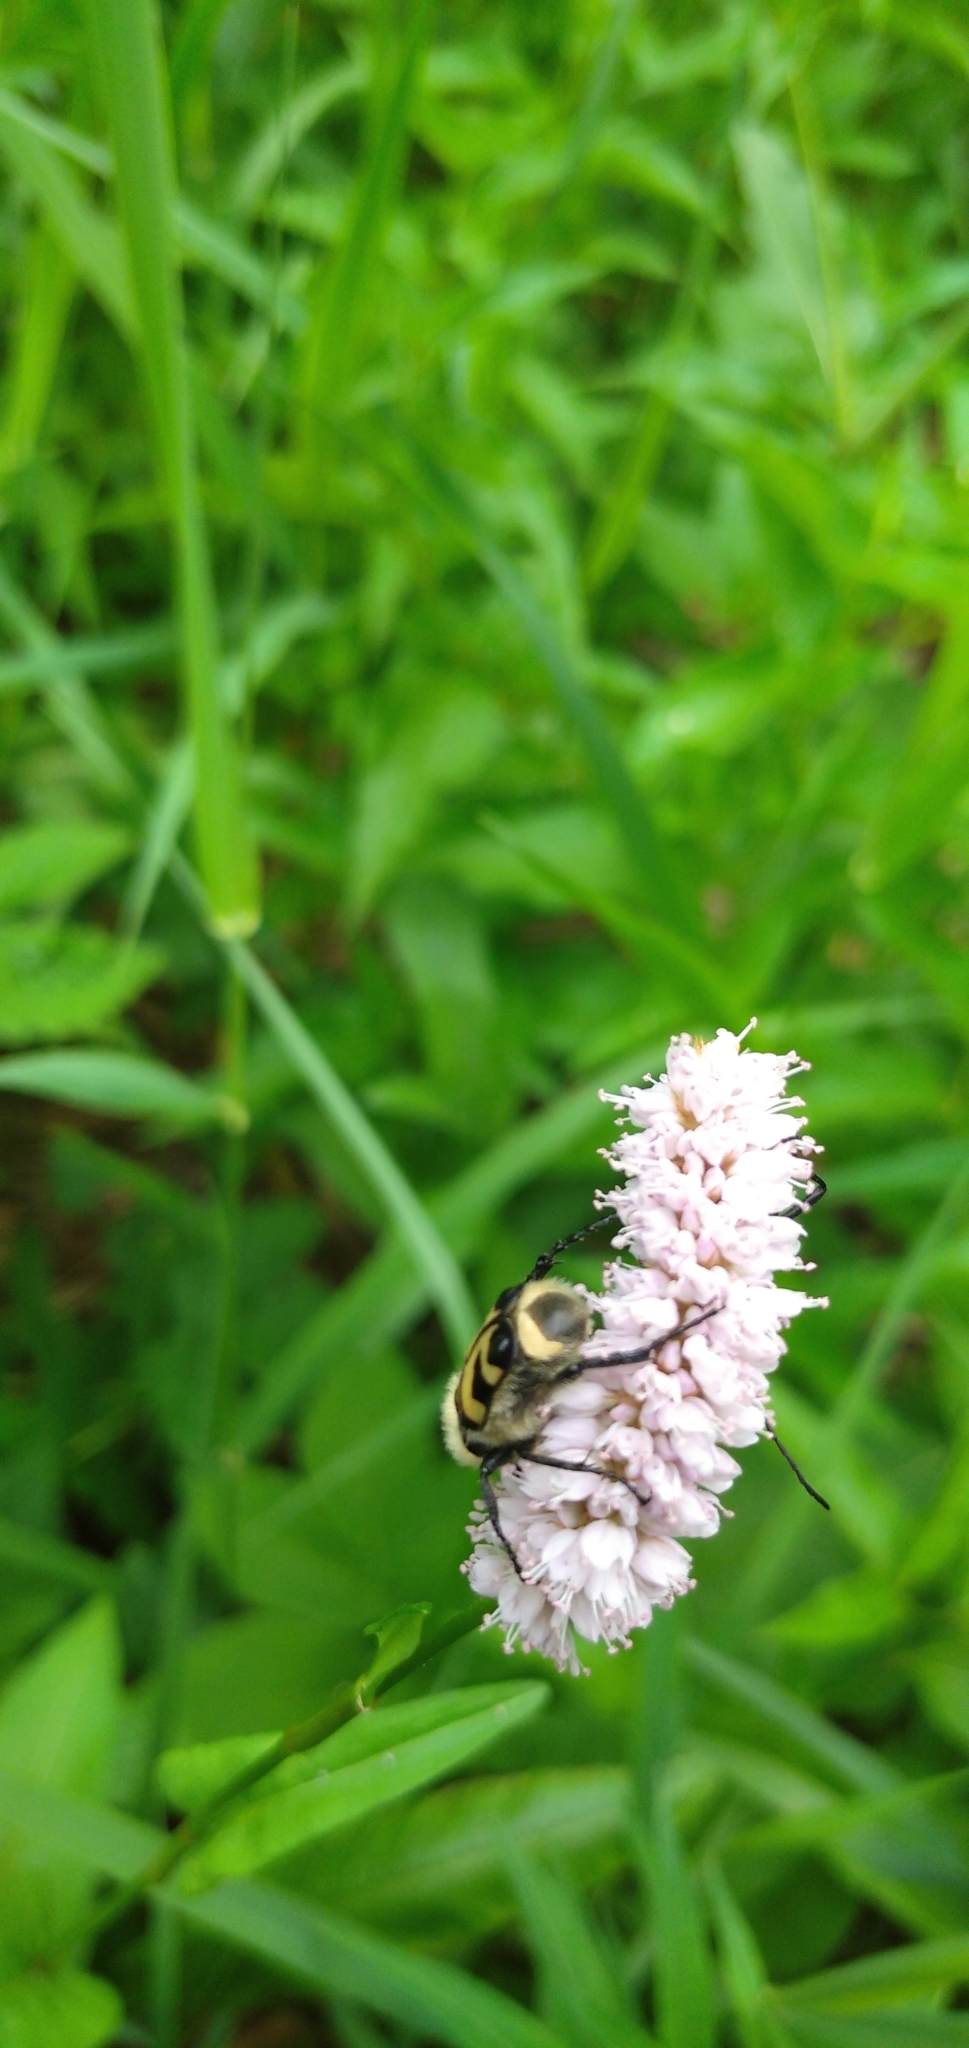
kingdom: Animalia
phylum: Arthropoda
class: Insecta
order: Coleoptera
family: Scarabaeidae
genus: Trichius
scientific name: Trichius fasciatus
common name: Bee beetle
